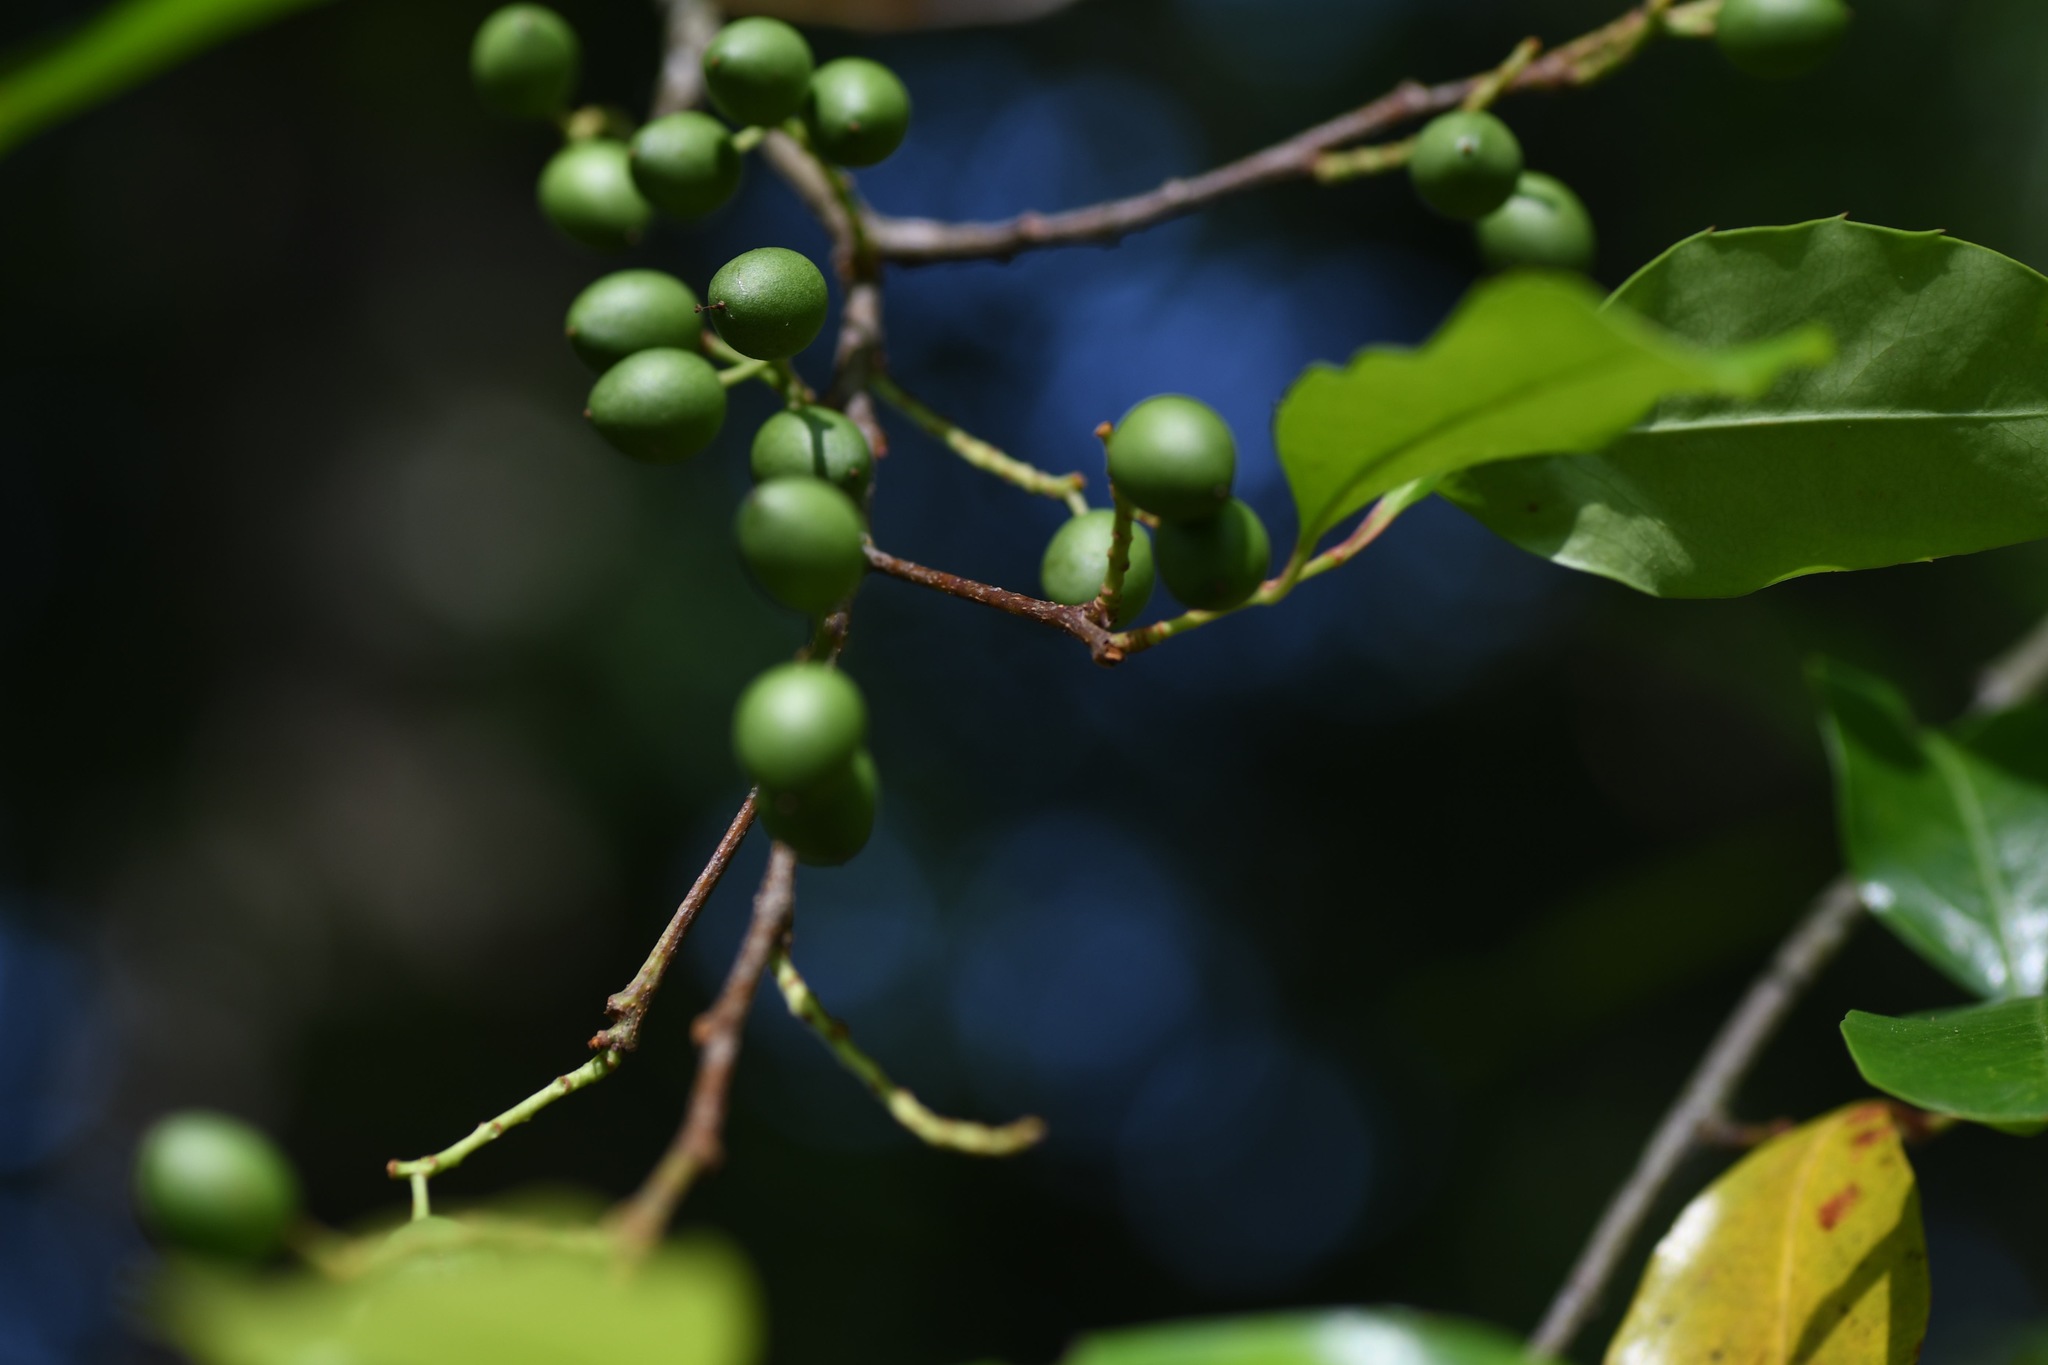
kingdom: Plantae
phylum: Tracheophyta
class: Magnoliopsida
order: Rosales
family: Rosaceae
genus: Prunus
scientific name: Prunus caroliniana
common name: Carolina laurel cherry
